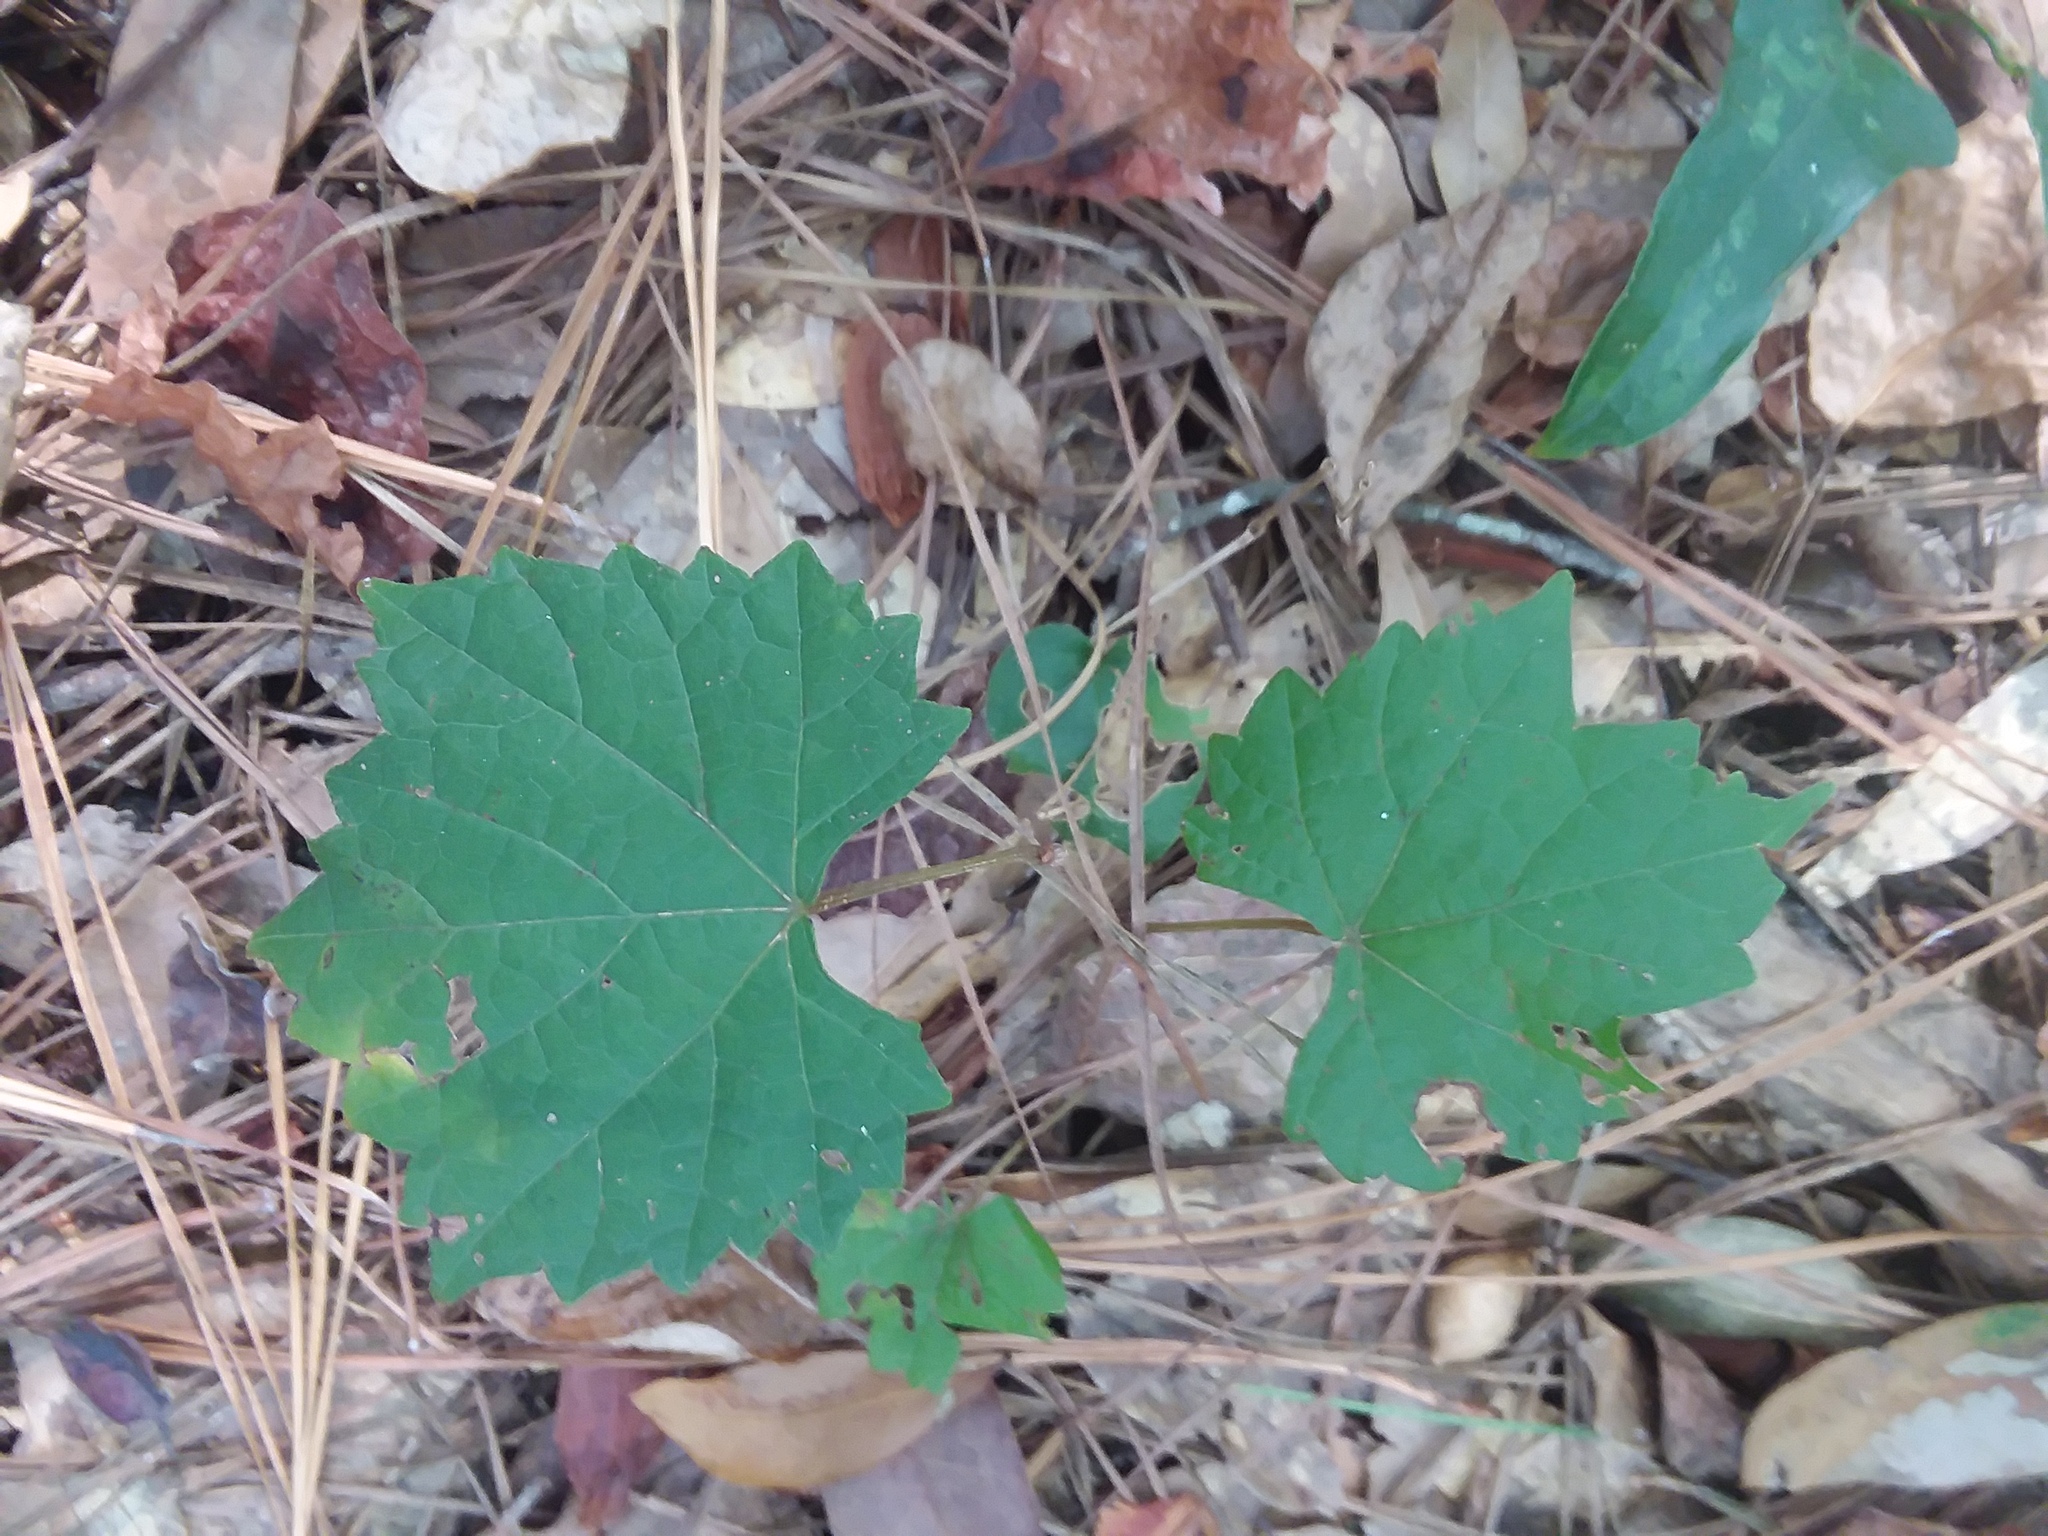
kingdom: Plantae
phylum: Tracheophyta
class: Magnoliopsida
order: Vitales
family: Vitaceae
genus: Vitis
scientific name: Vitis rotundifolia
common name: Muscadine grape
